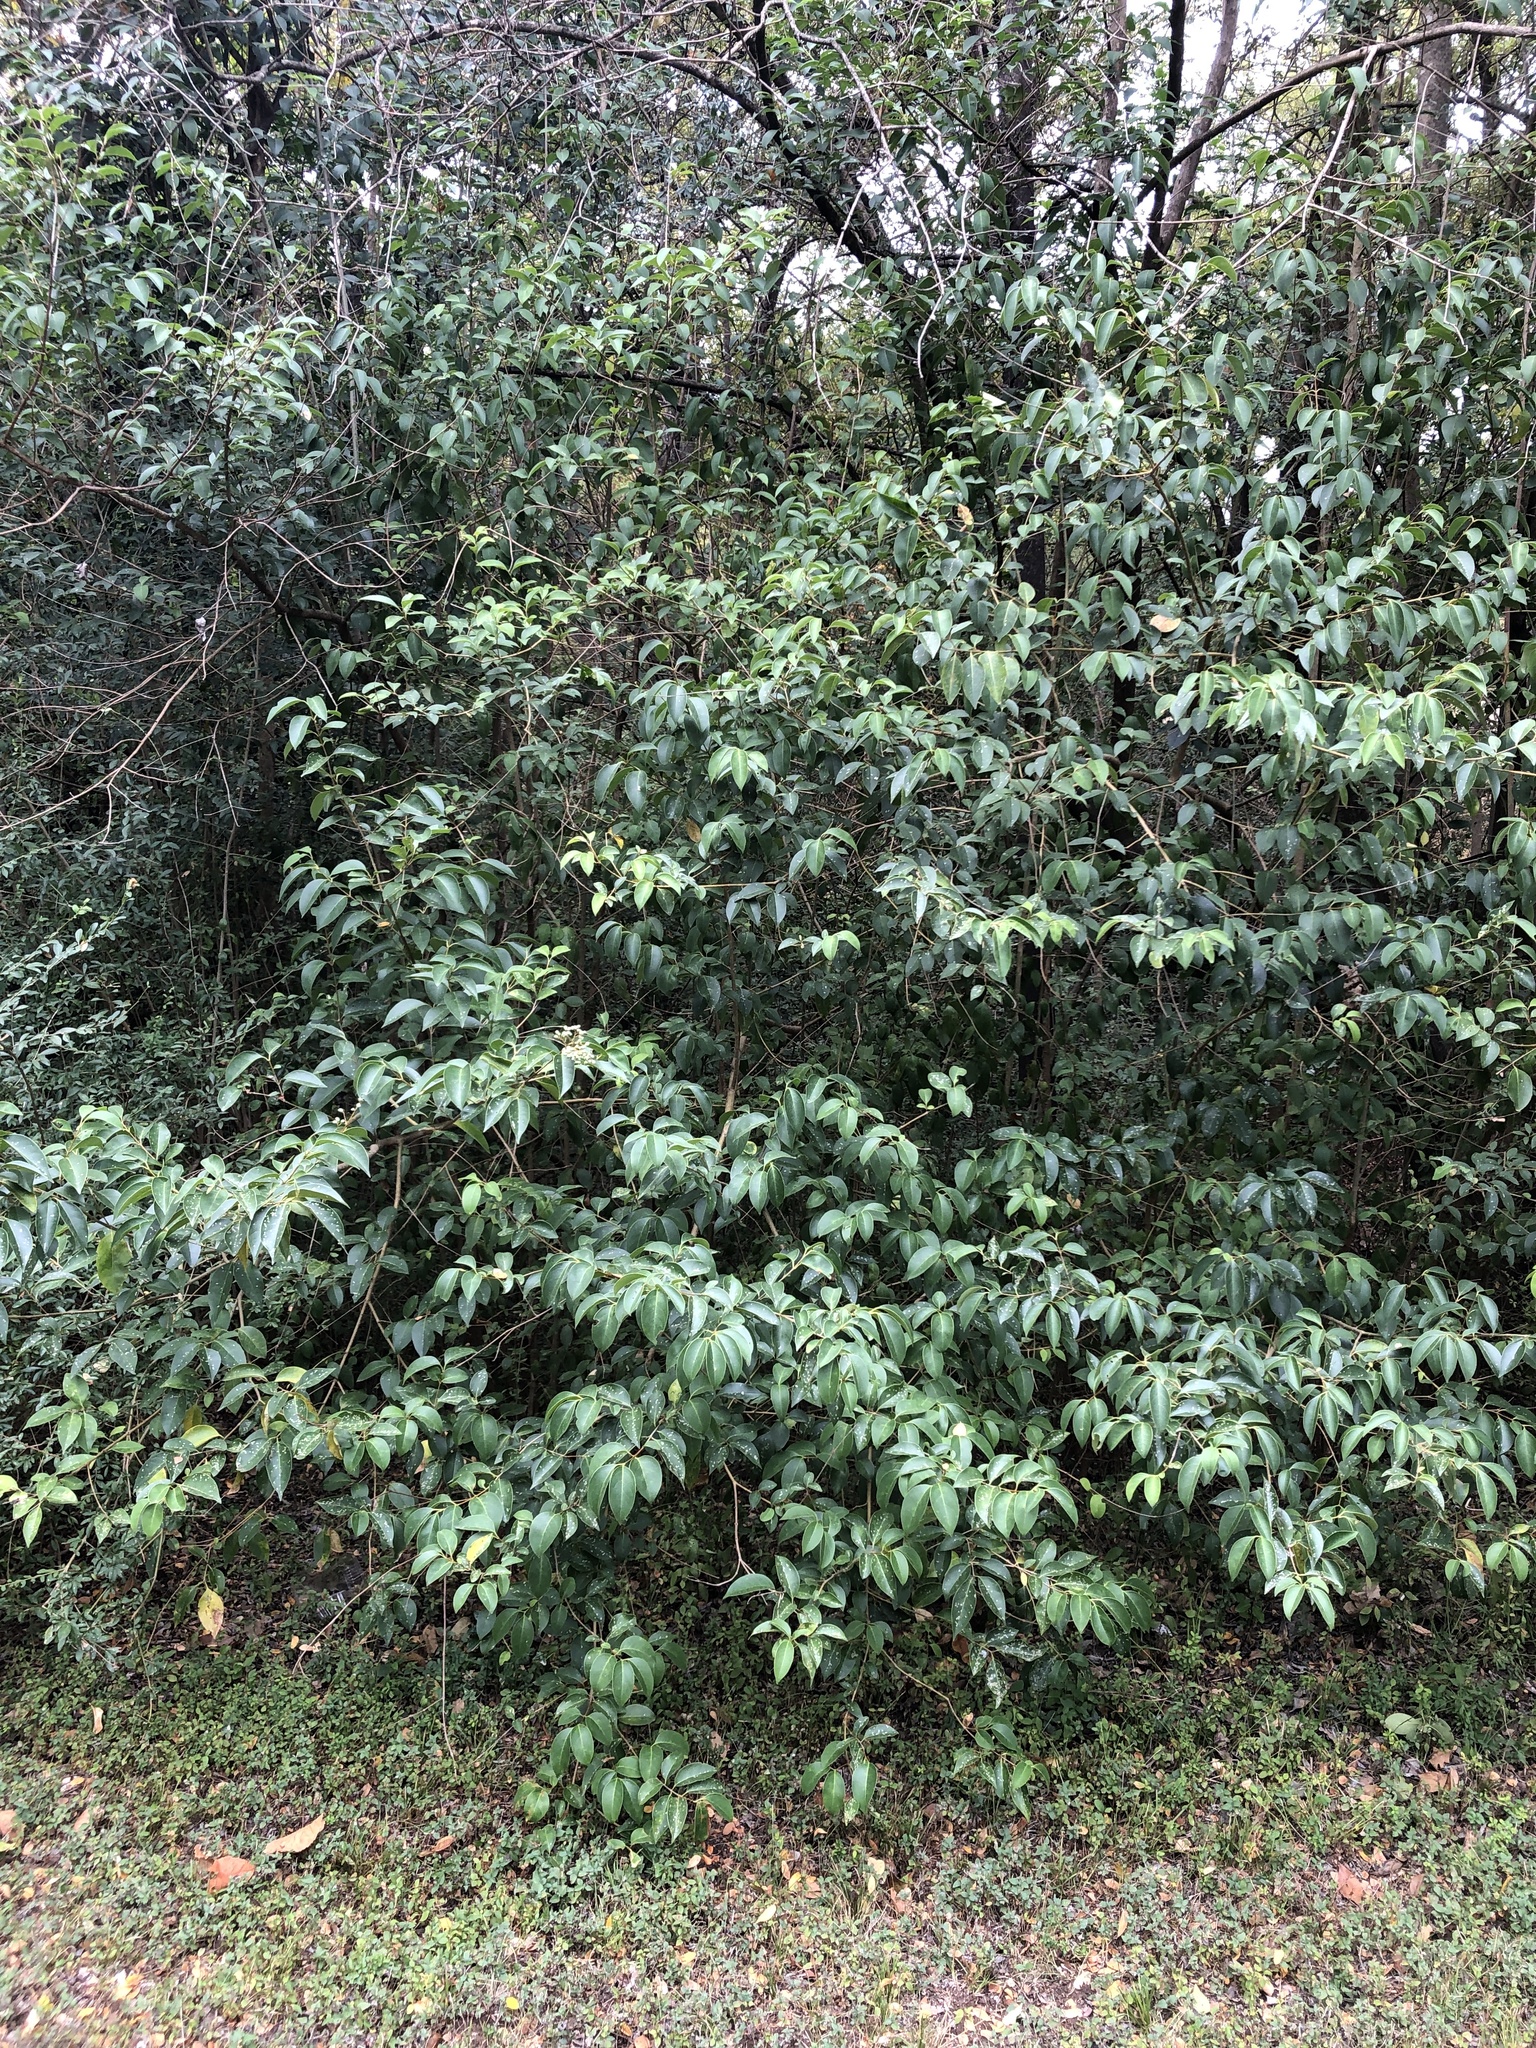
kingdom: Plantae
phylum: Tracheophyta
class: Magnoliopsida
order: Lamiales
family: Oleaceae
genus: Ligustrum
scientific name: Ligustrum lucidum
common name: Glossy privet
